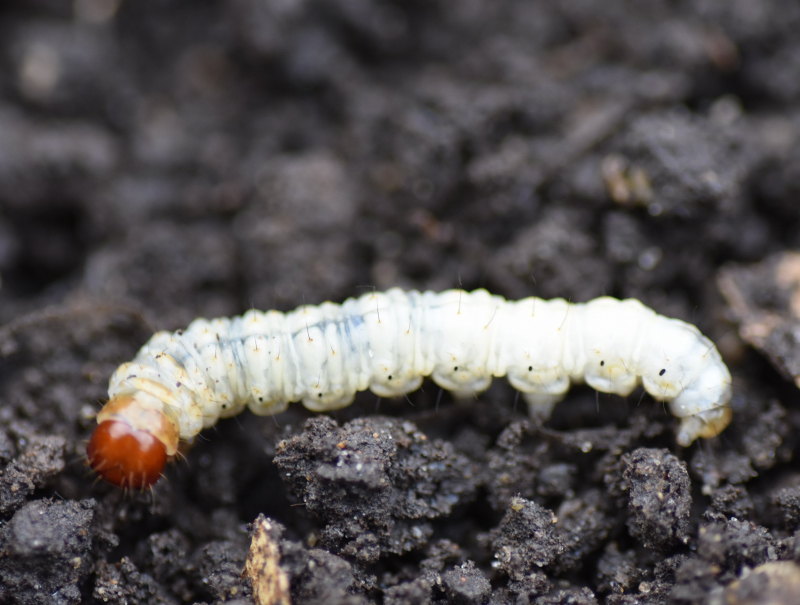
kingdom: Animalia
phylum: Arthropoda
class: Insecta
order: Lepidoptera
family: Hepialidae
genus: Korscheltellus
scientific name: Korscheltellus lupulina
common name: Common swift
